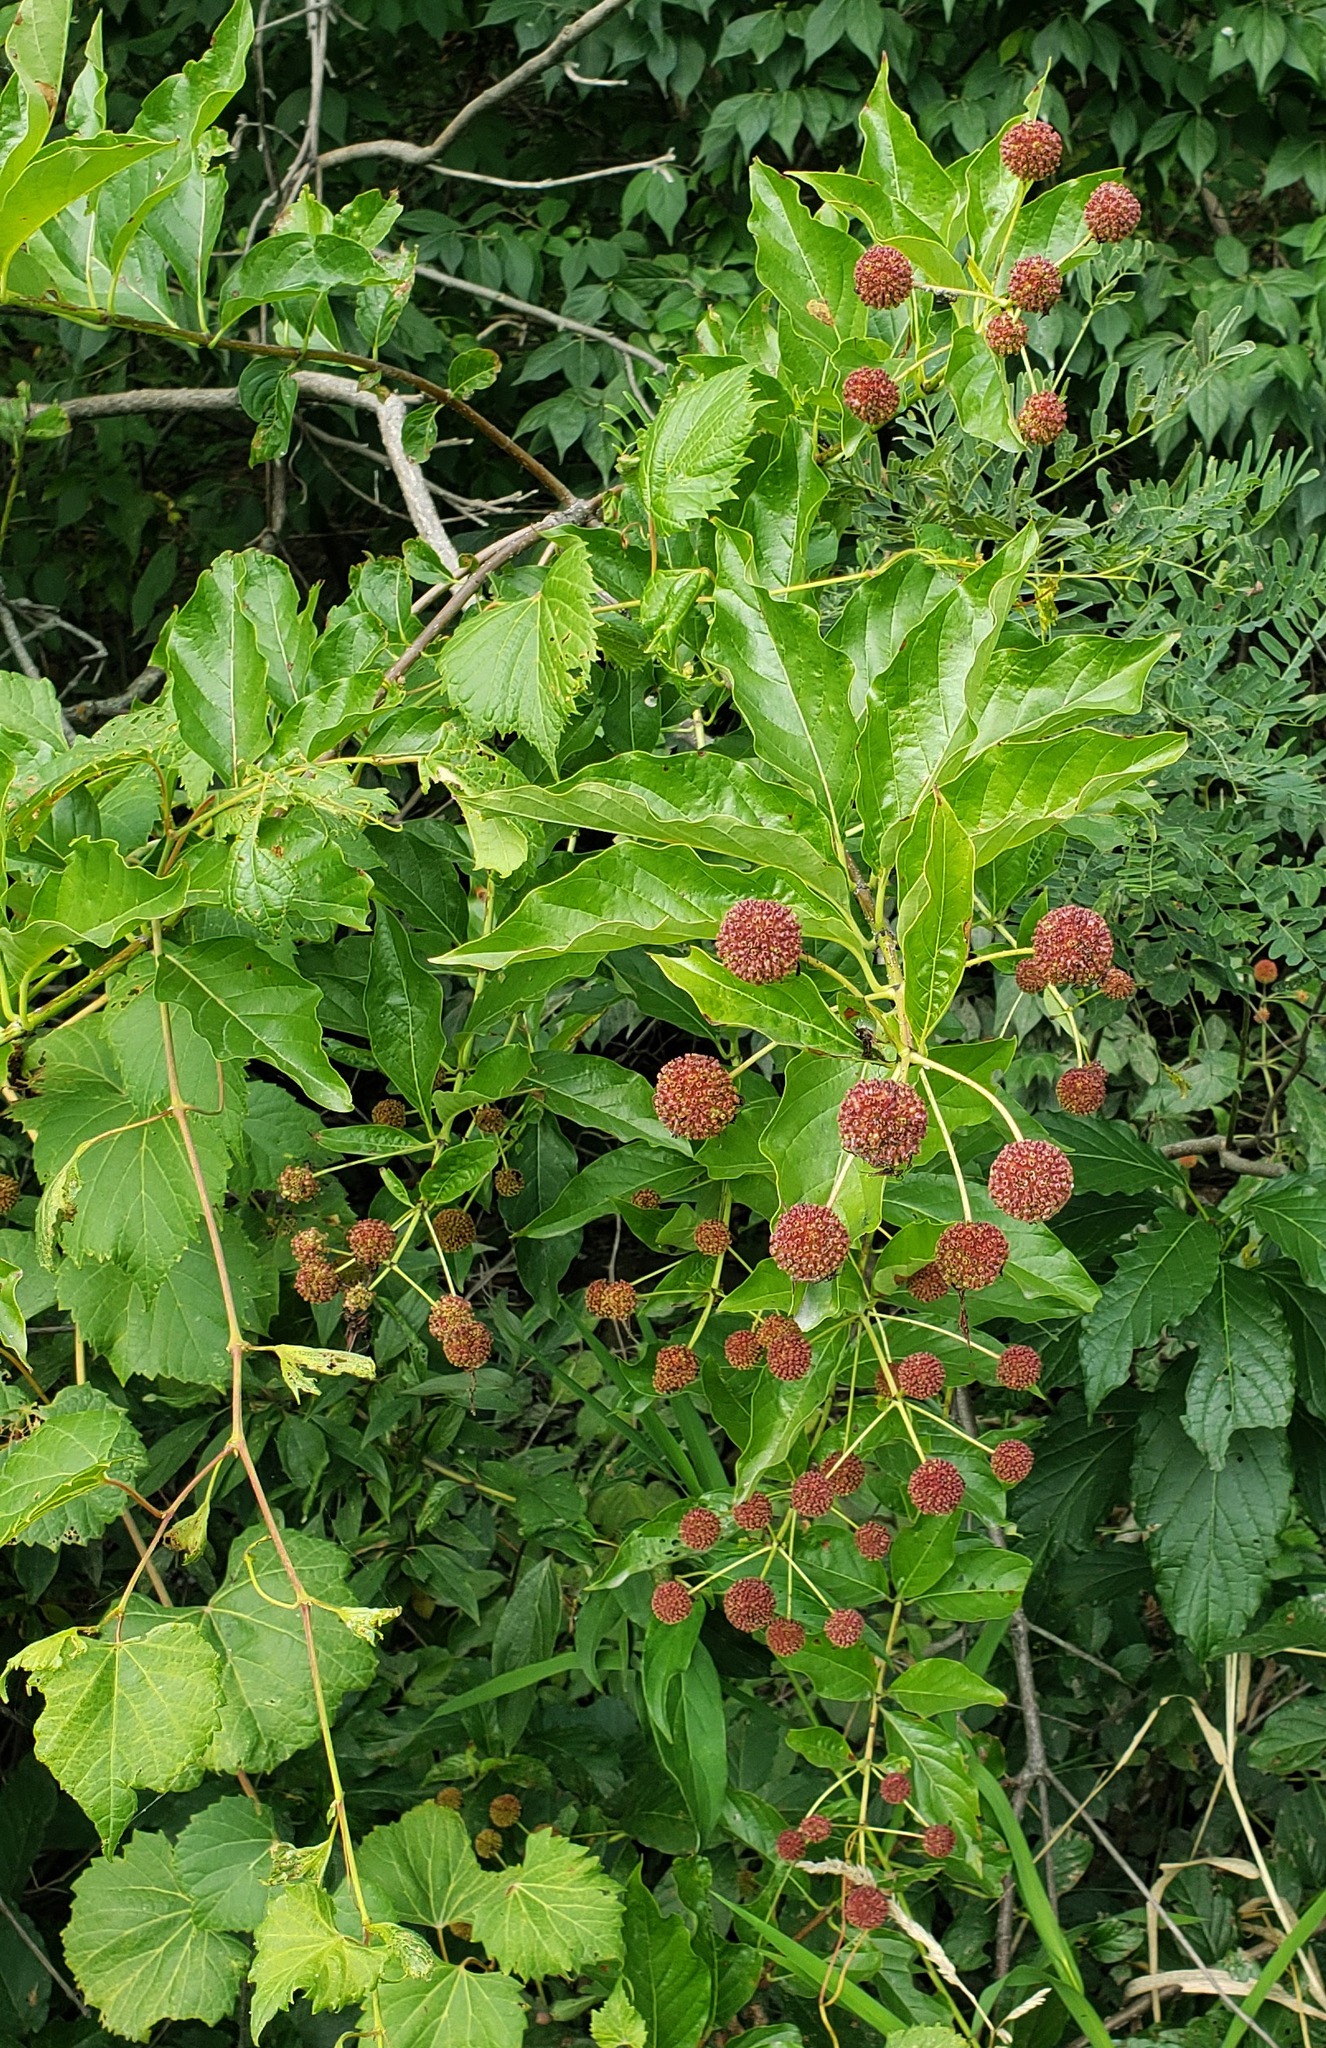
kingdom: Plantae
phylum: Tracheophyta
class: Magnoliopsida
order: Gentianales
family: Rubiaceae
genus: Cephalanthus
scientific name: Cephalanthus occidentalis
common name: Button-willow
